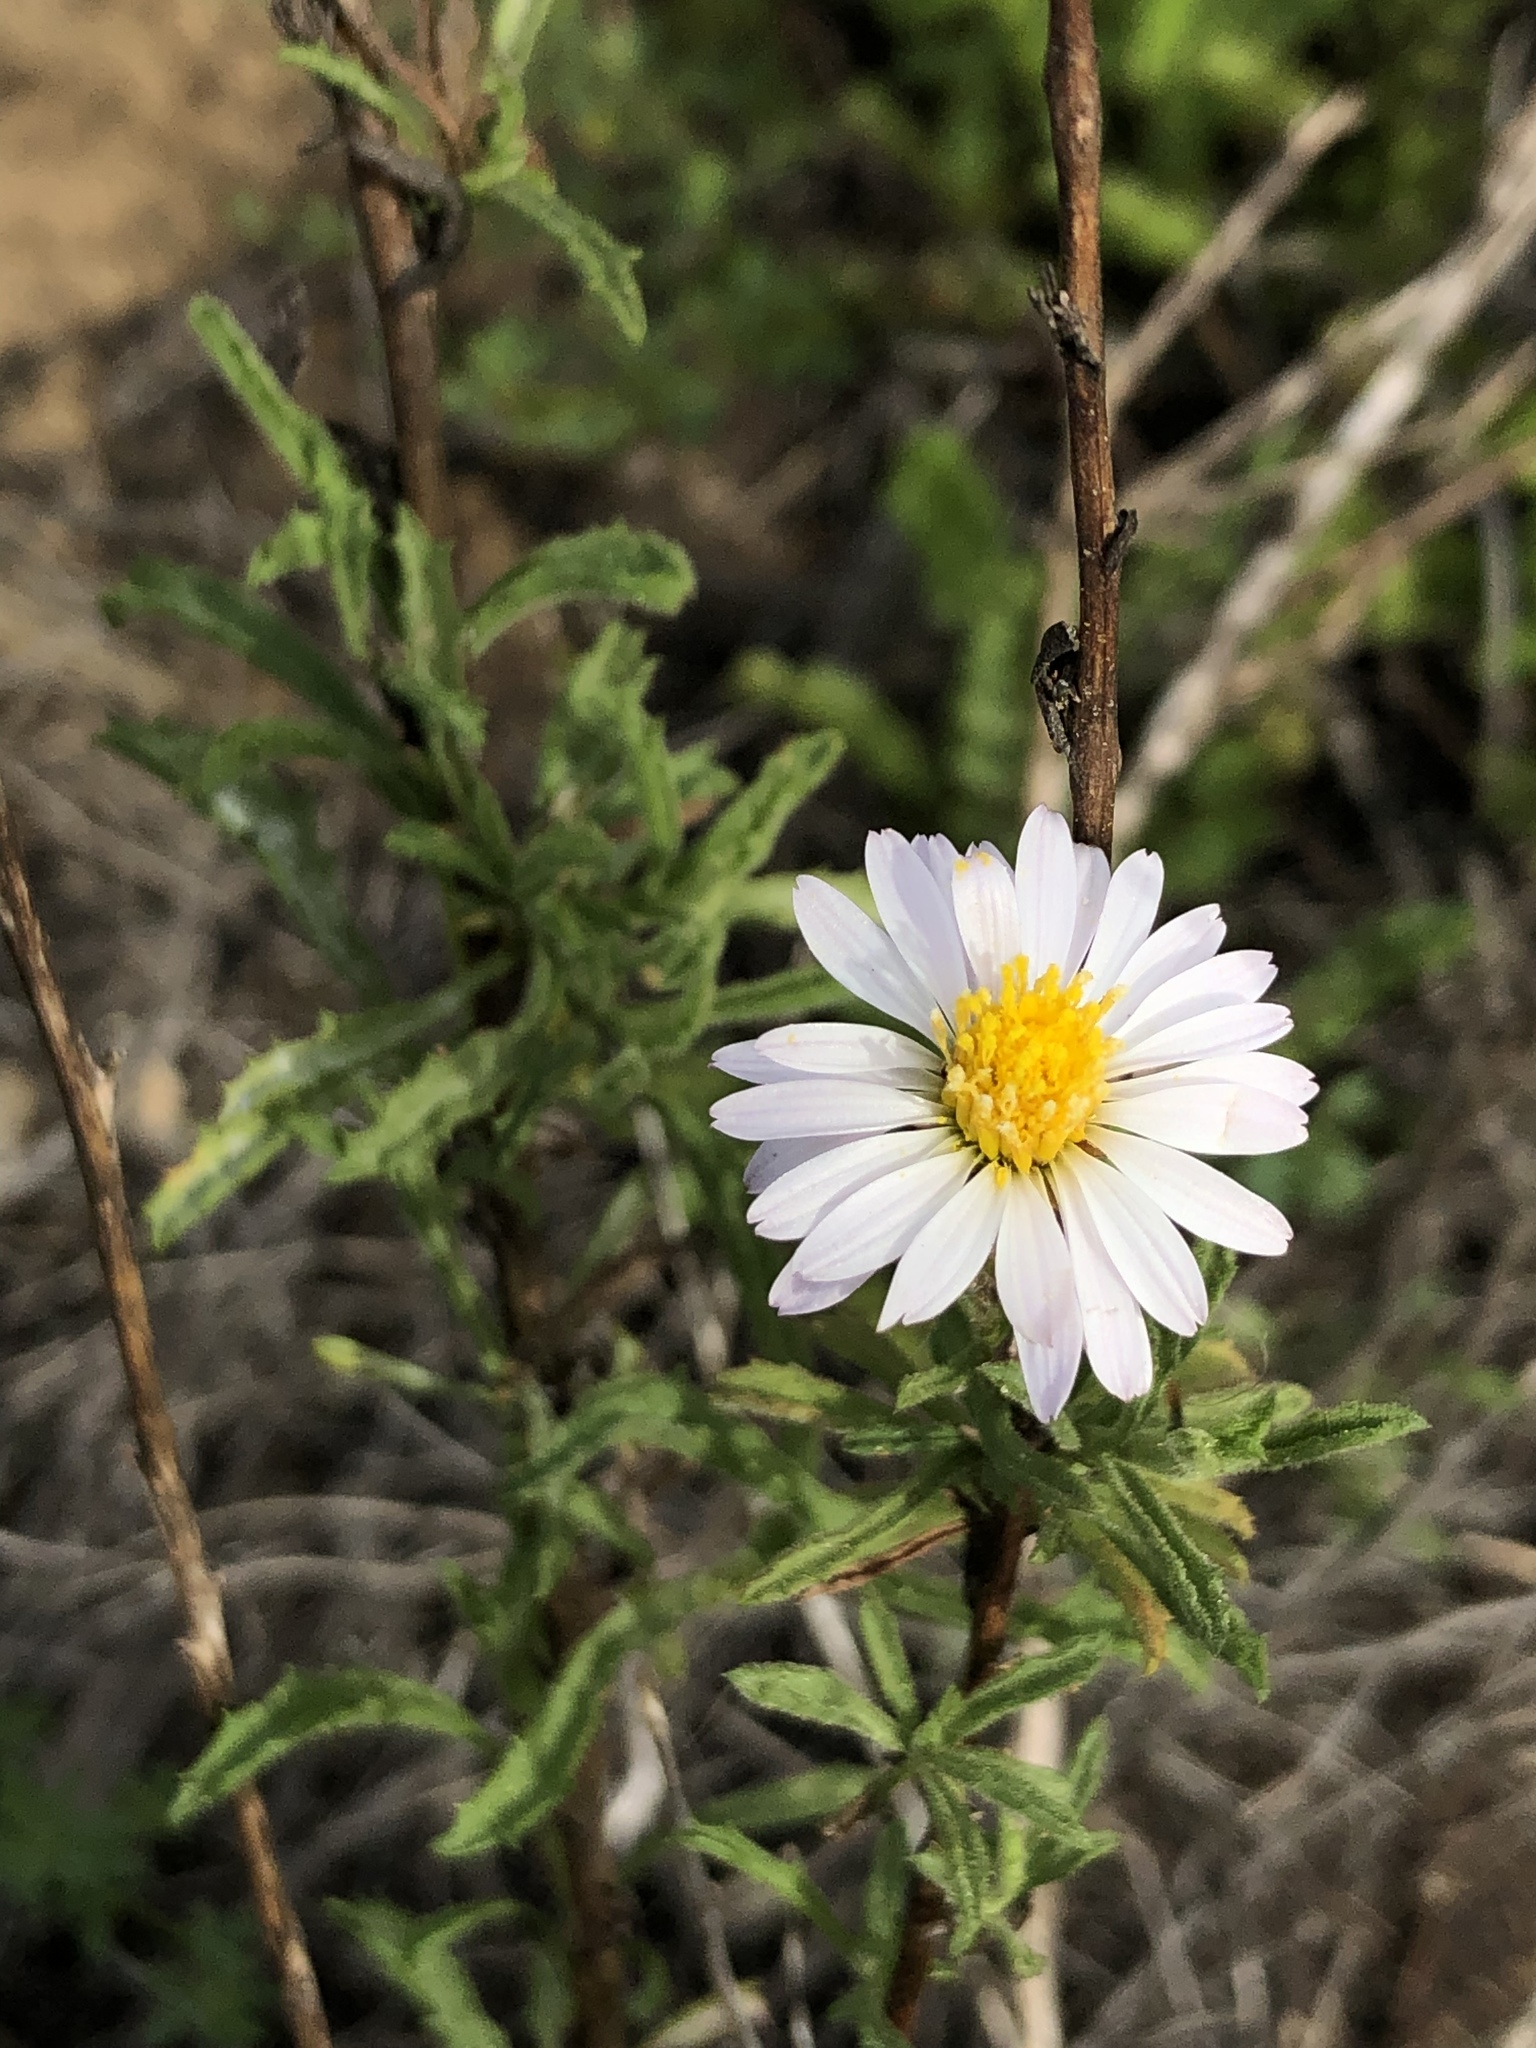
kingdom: Plantae
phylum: Tracheophyta
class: Magnoliopsida
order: Asterales
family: Asteraceae
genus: Corethrogyne
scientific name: Corethrogyne filaginifolia
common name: Sand-aster
